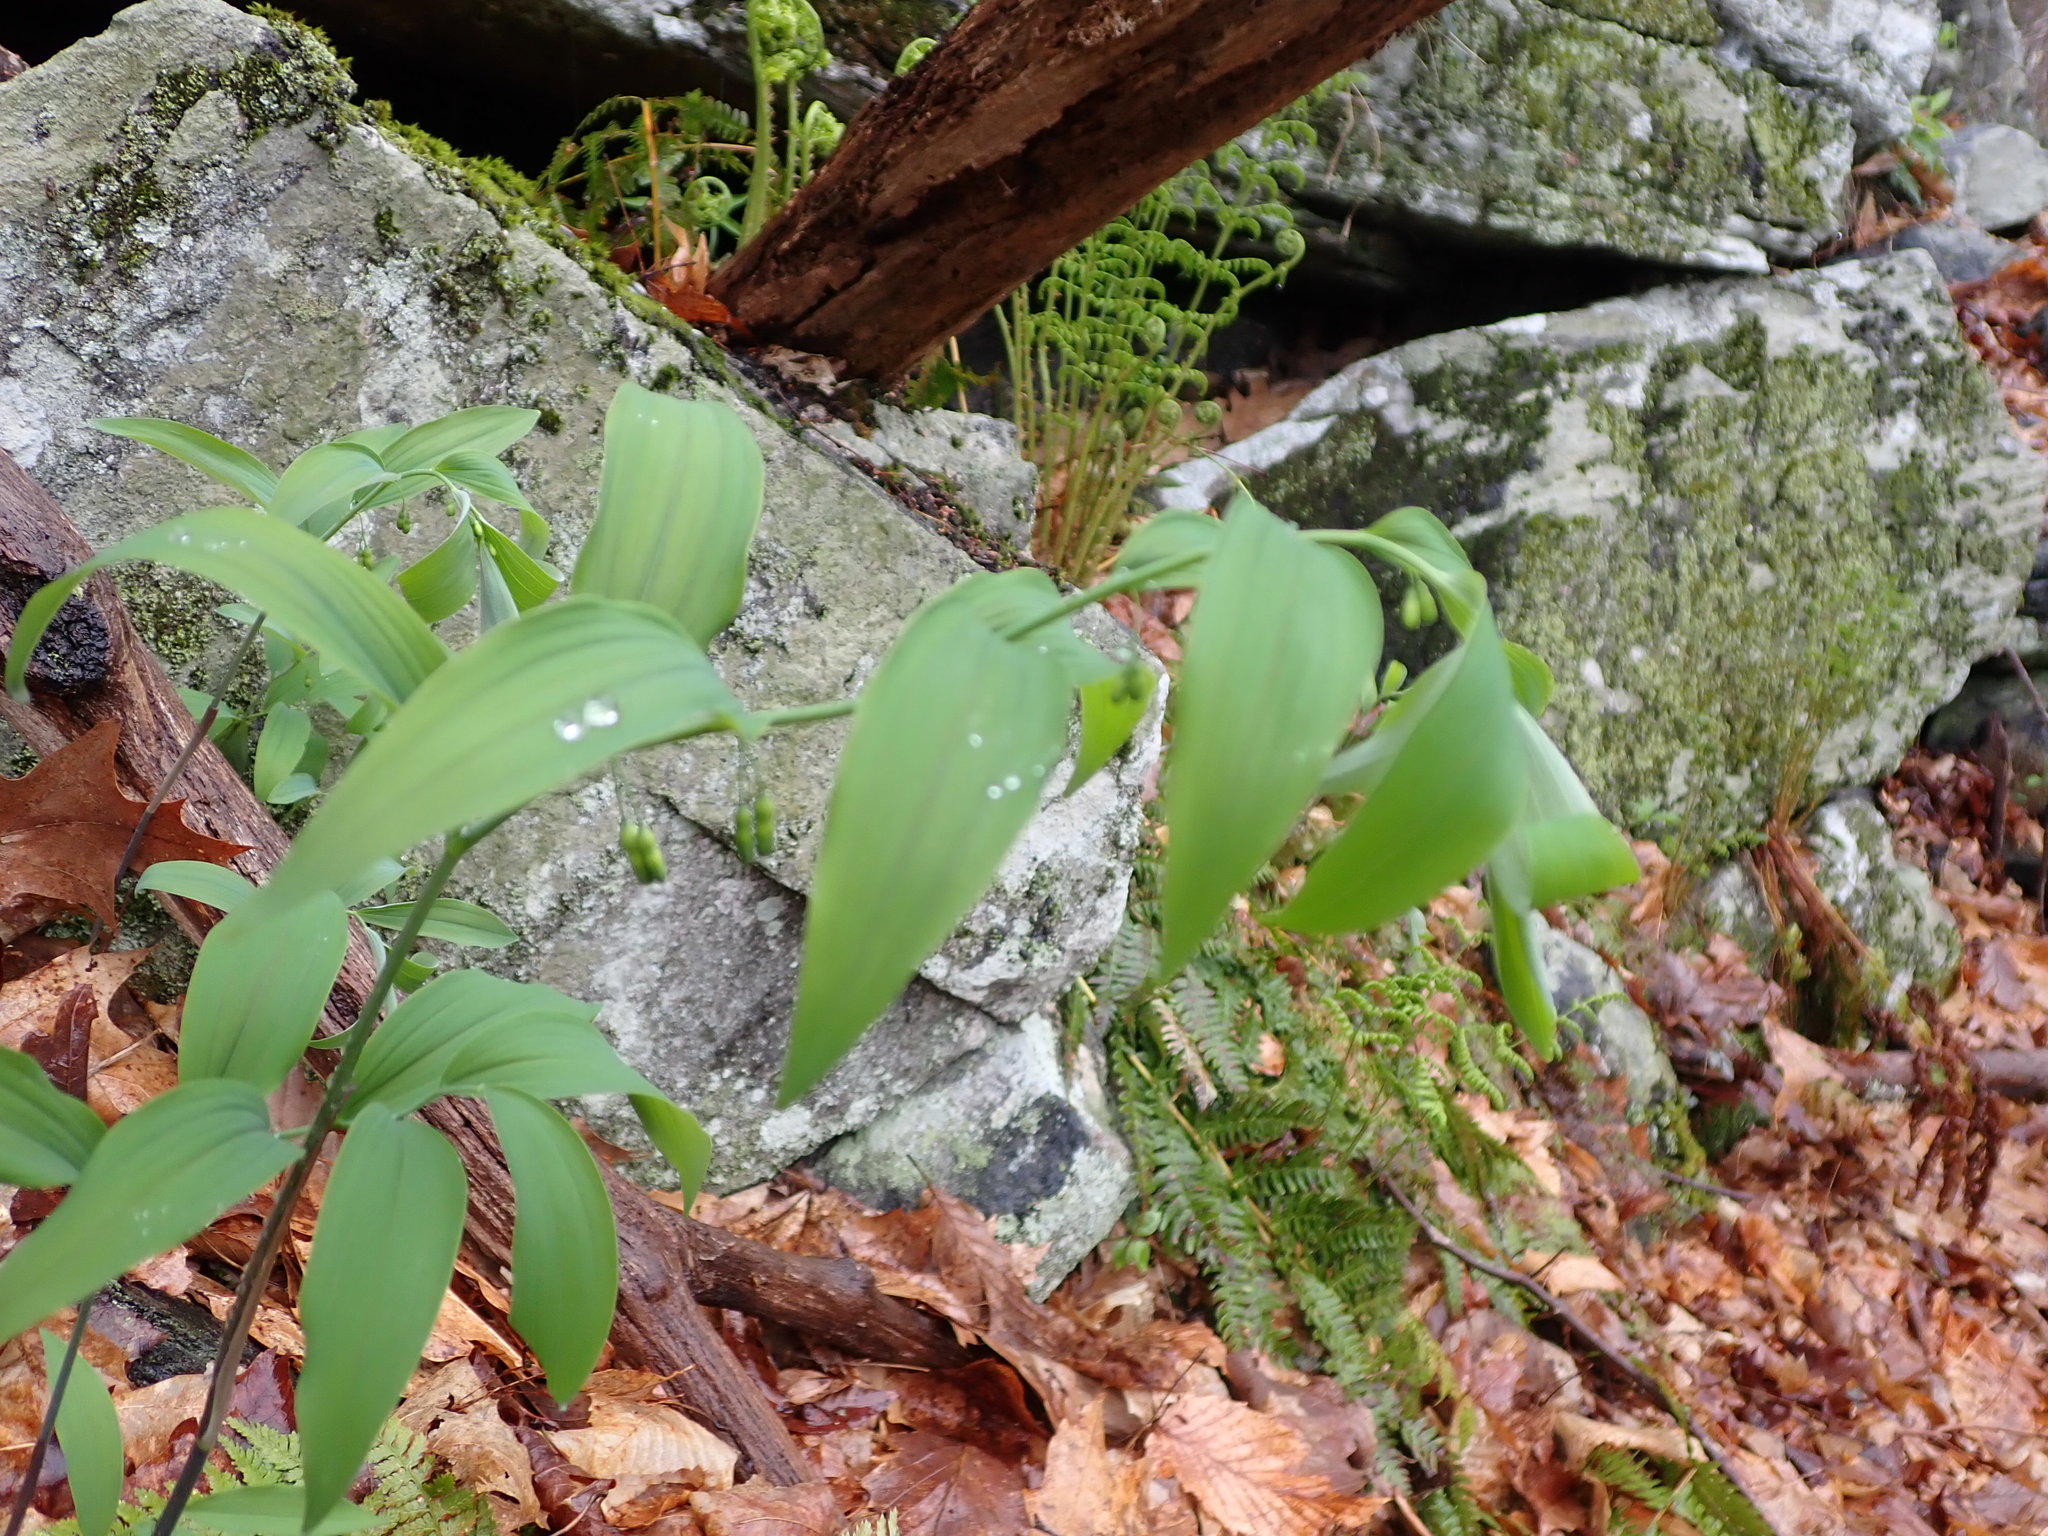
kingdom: Plantae
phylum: Tracheophyta
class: Liliopsida
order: Asparagales
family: Asparagaceae
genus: Polygonatum
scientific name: Polygonatum pubescens
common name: Downy solomon's seal
